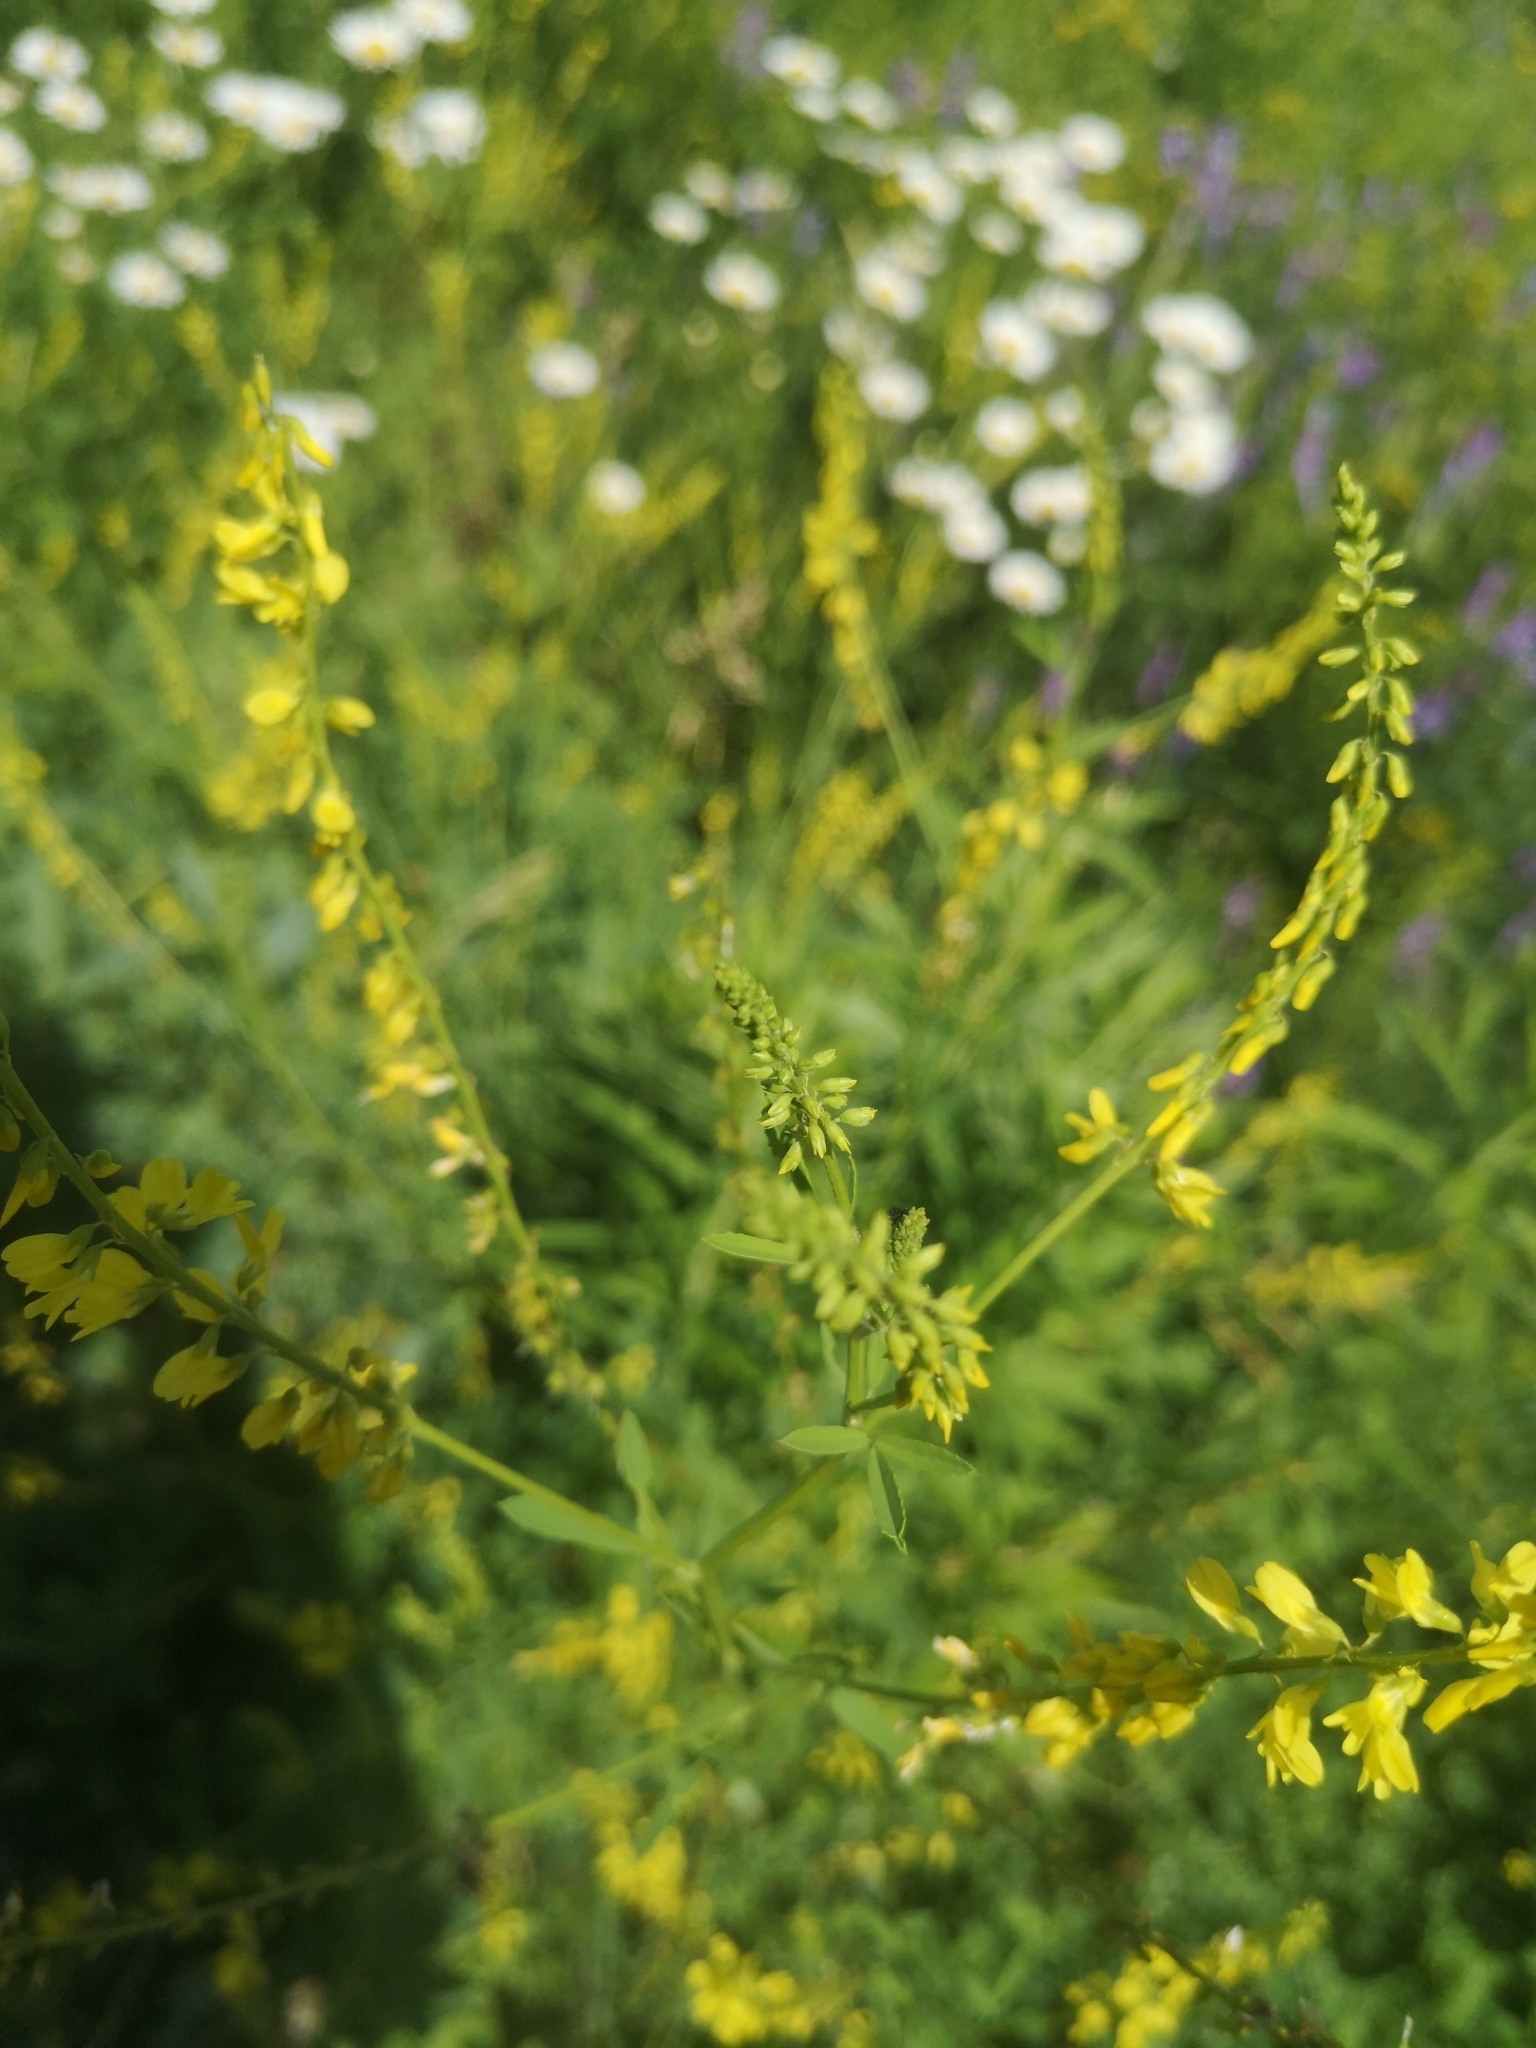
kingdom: Plantae
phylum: Tracheophyta
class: Magnoliopsida
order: Fabales
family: Fabaceae
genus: Melilotus
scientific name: Melilotus officinalis
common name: Sweetclover
